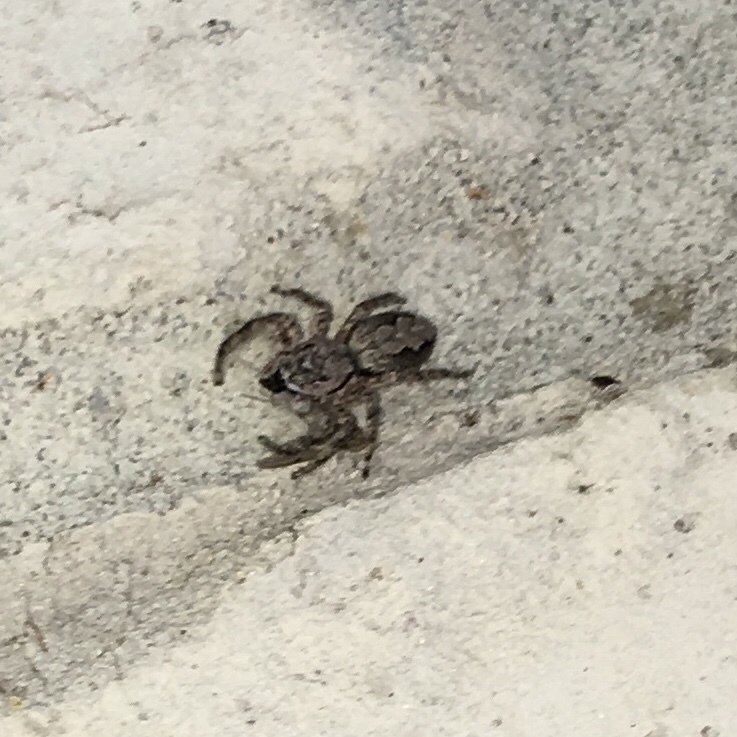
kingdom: Animalia
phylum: Arthropoda
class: Arachnida
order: Araneae
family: Salticidae
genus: Platycryptus
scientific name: Platycryptus undatus
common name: Tan jumping spider
